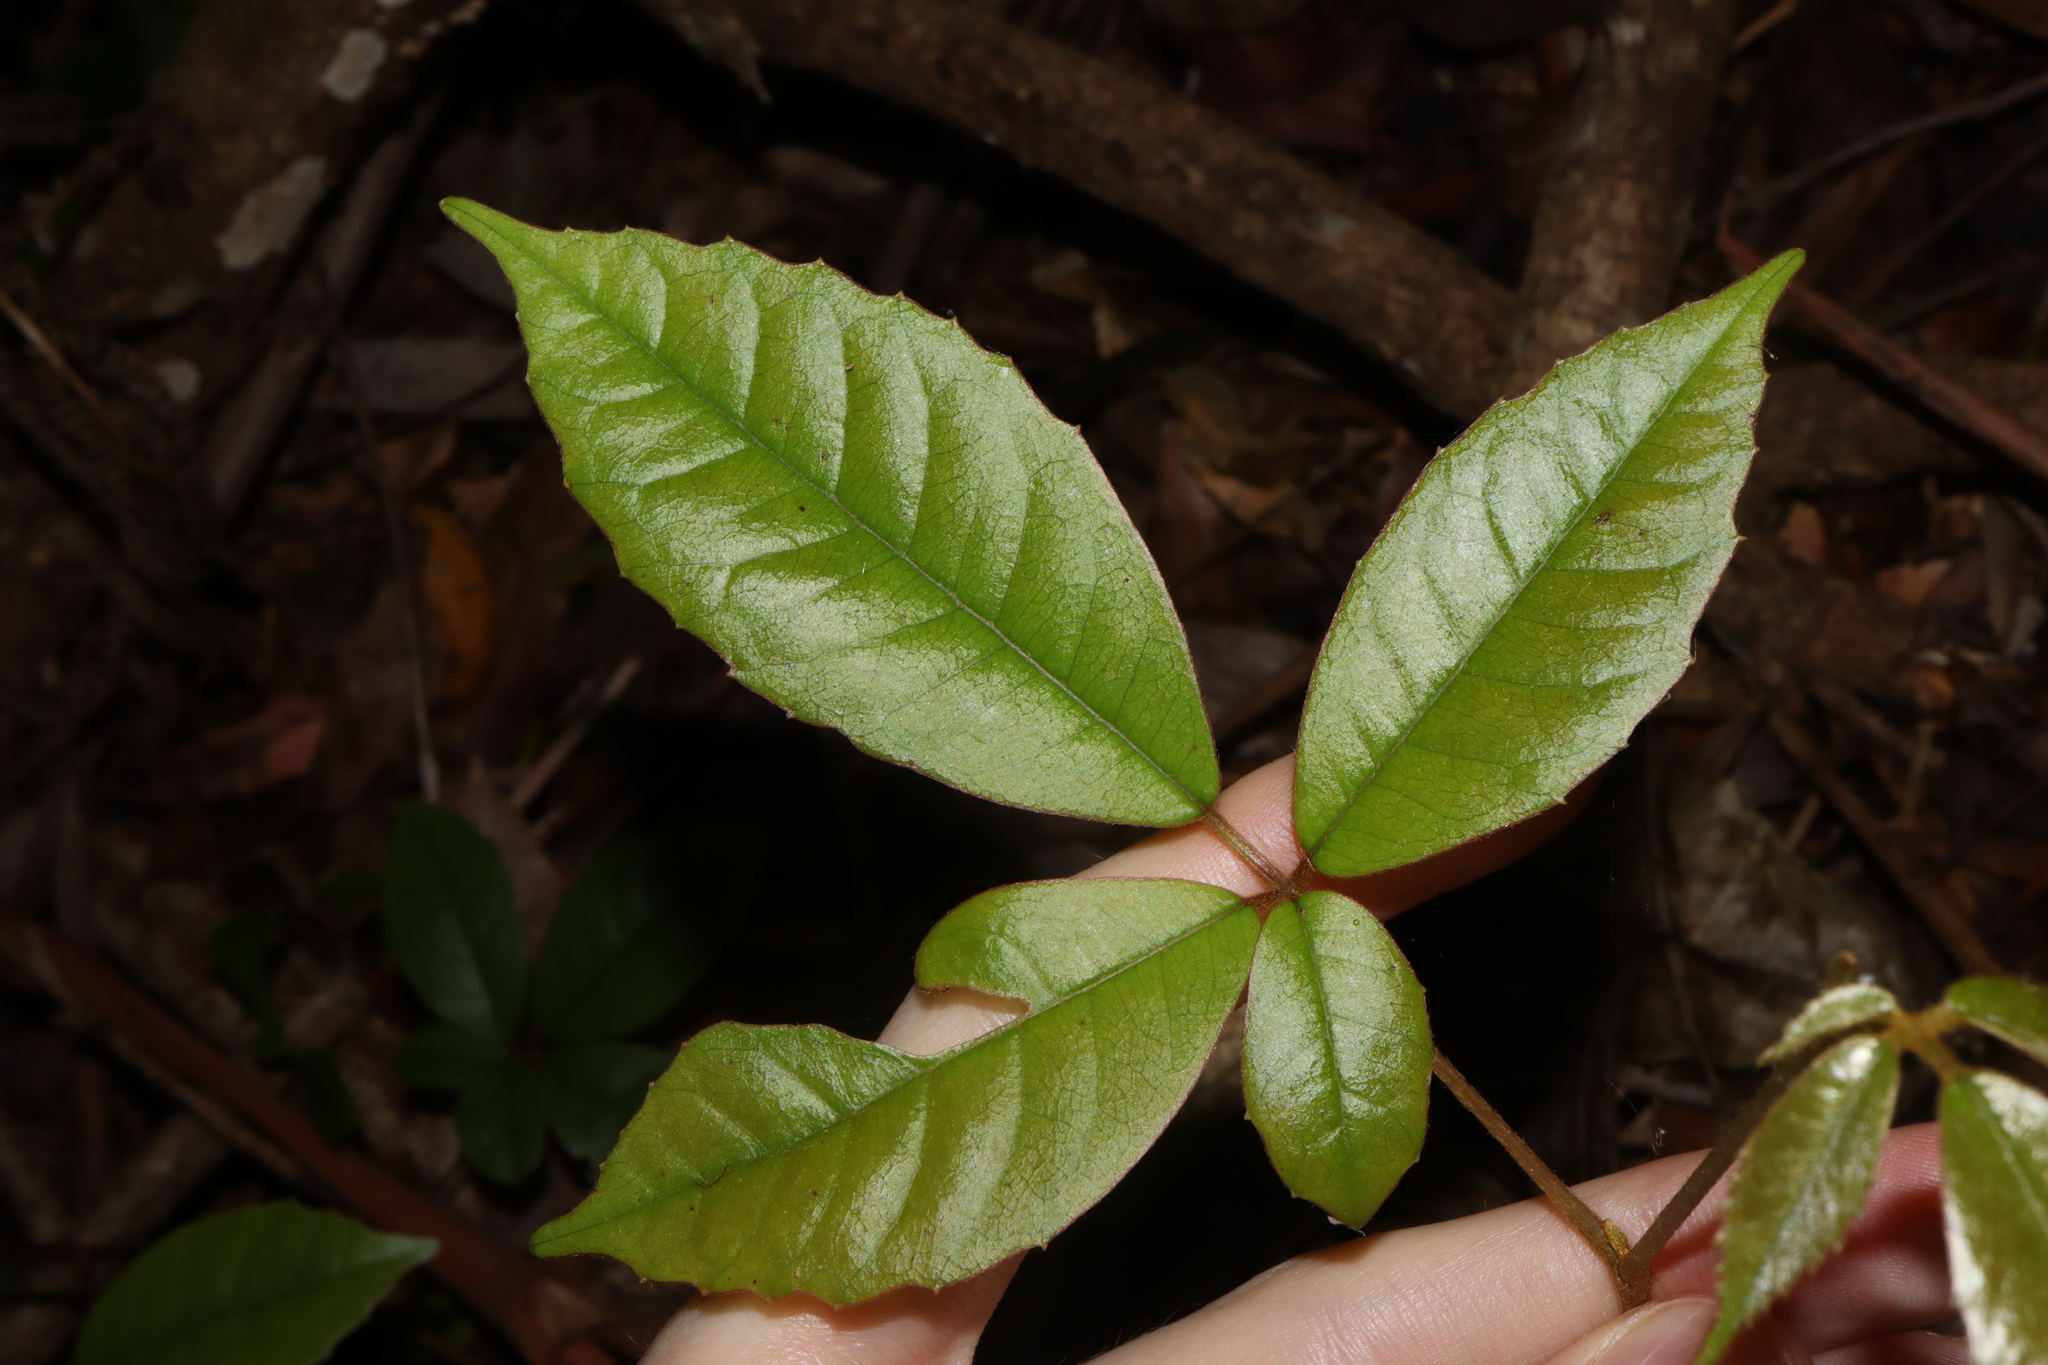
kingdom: Plantae
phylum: Tracheophyta
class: Magnoliopsida
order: Vitales
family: Vitaceae
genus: Nothocissus
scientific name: Nothocissus hypoglauca
